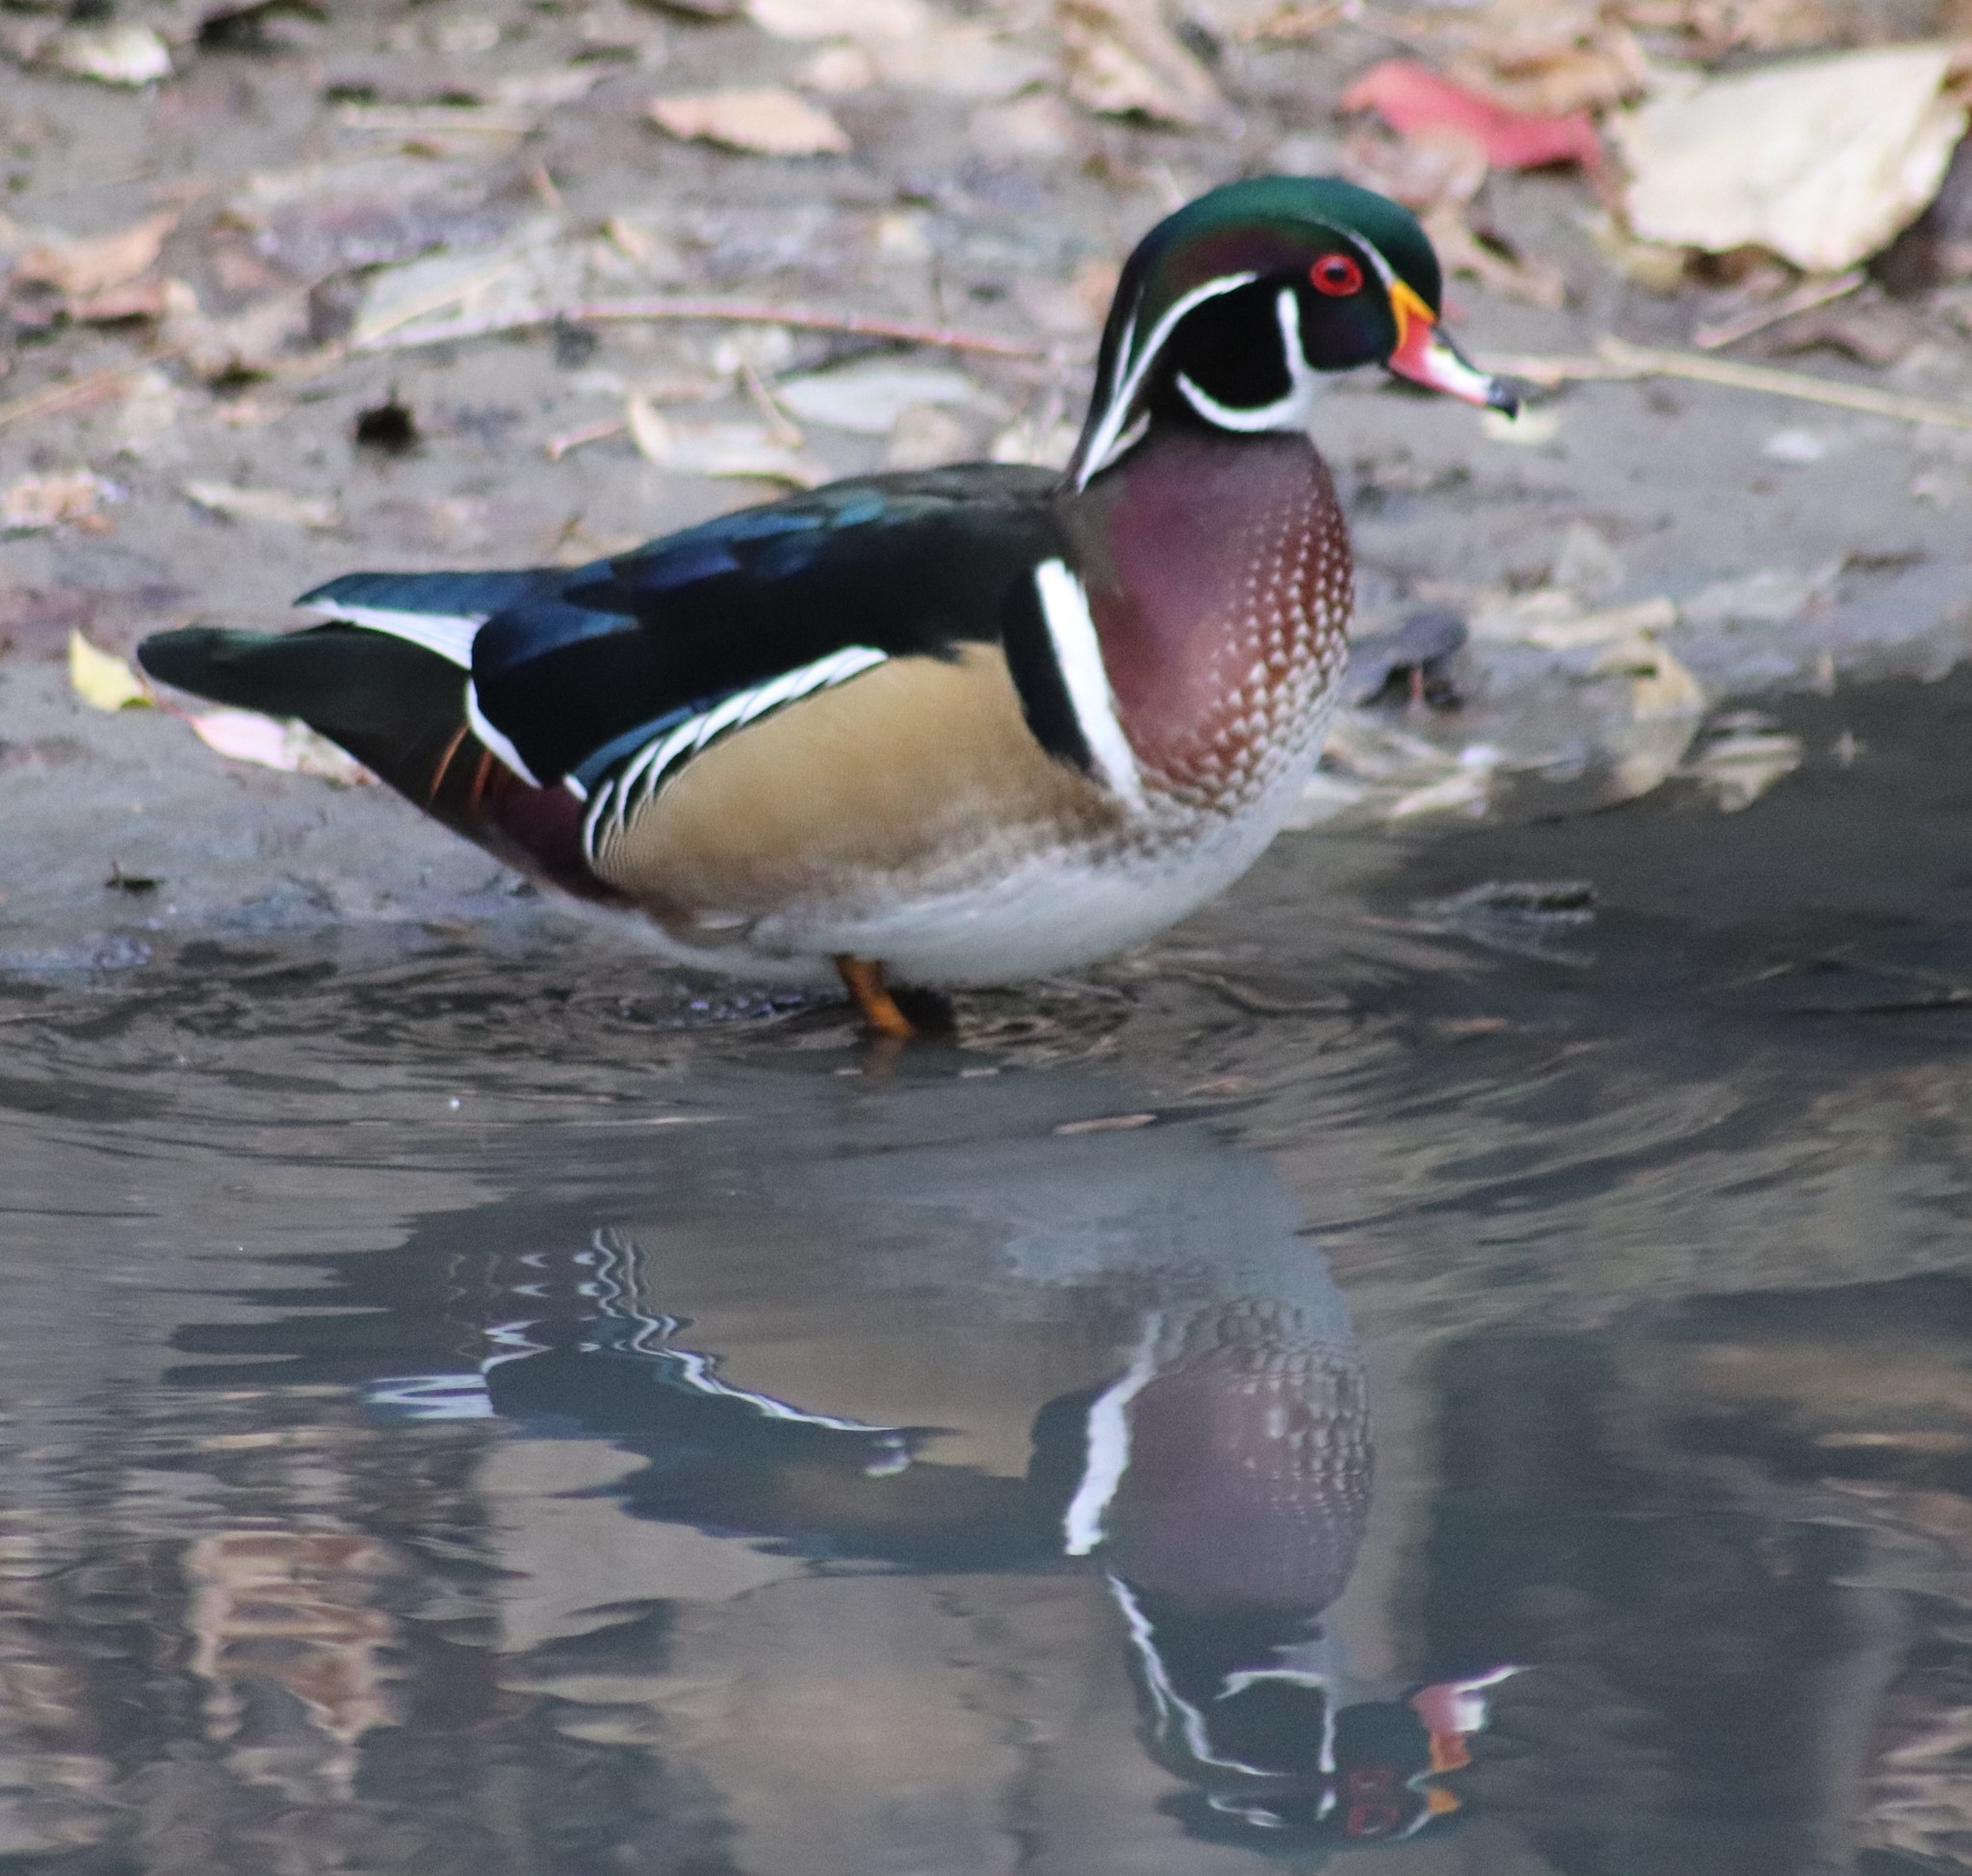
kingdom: Animalia
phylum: Chordata
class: Aves
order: Anseriformes
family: Anatidae
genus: Aix
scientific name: Aix sponsa
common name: Wood duck
